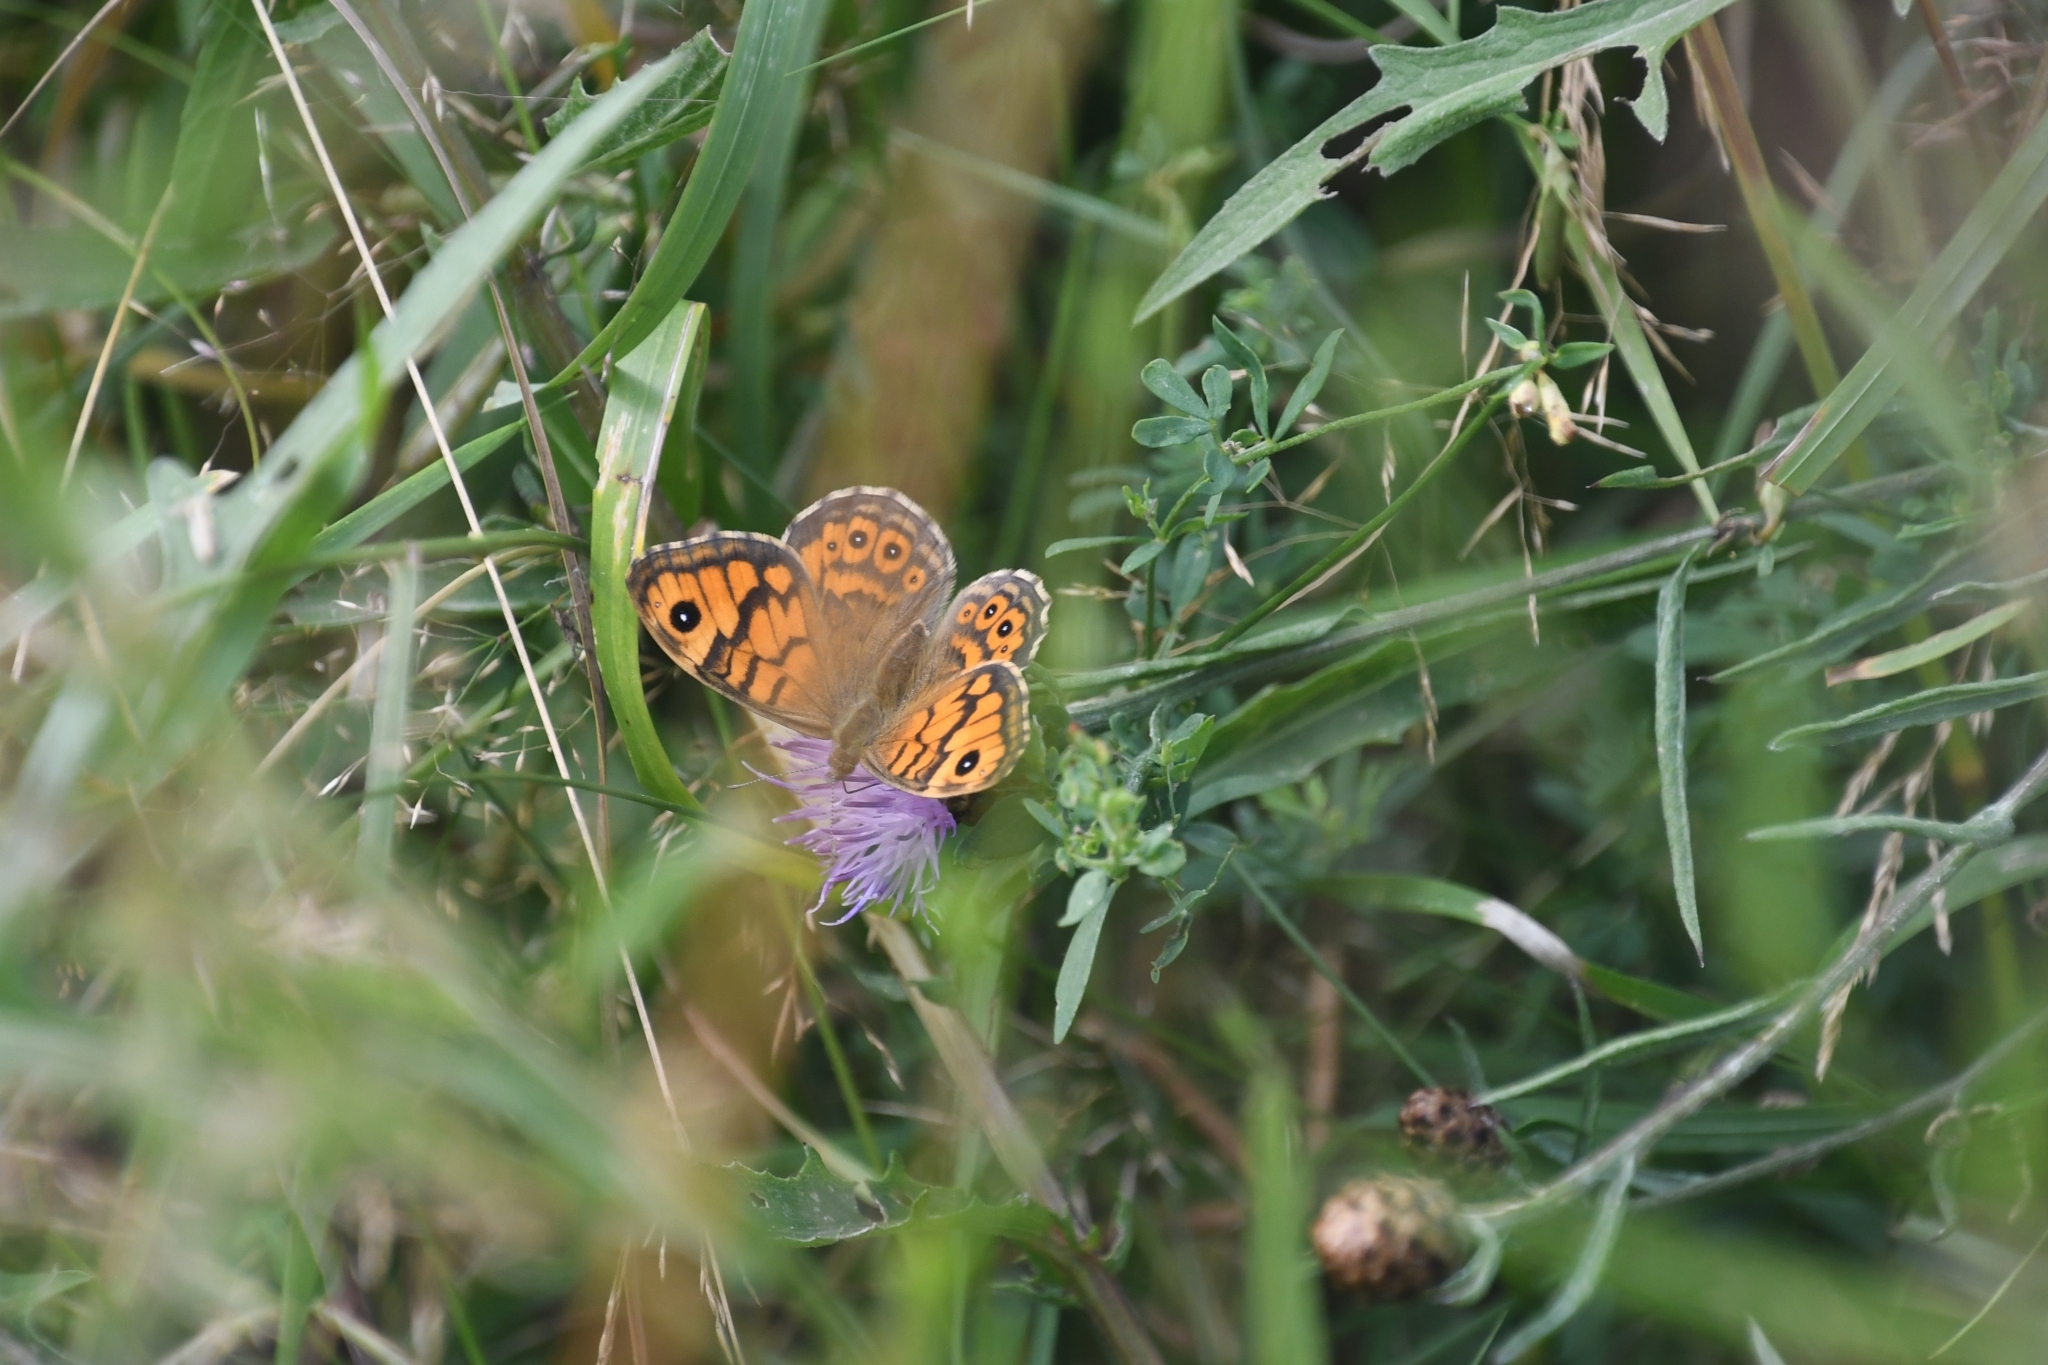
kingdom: Animalia
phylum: Arthropoda
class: Insecta
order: Lepidoptera
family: Nymphalidae
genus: Pararge
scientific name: Pararge Lasiommata megera
